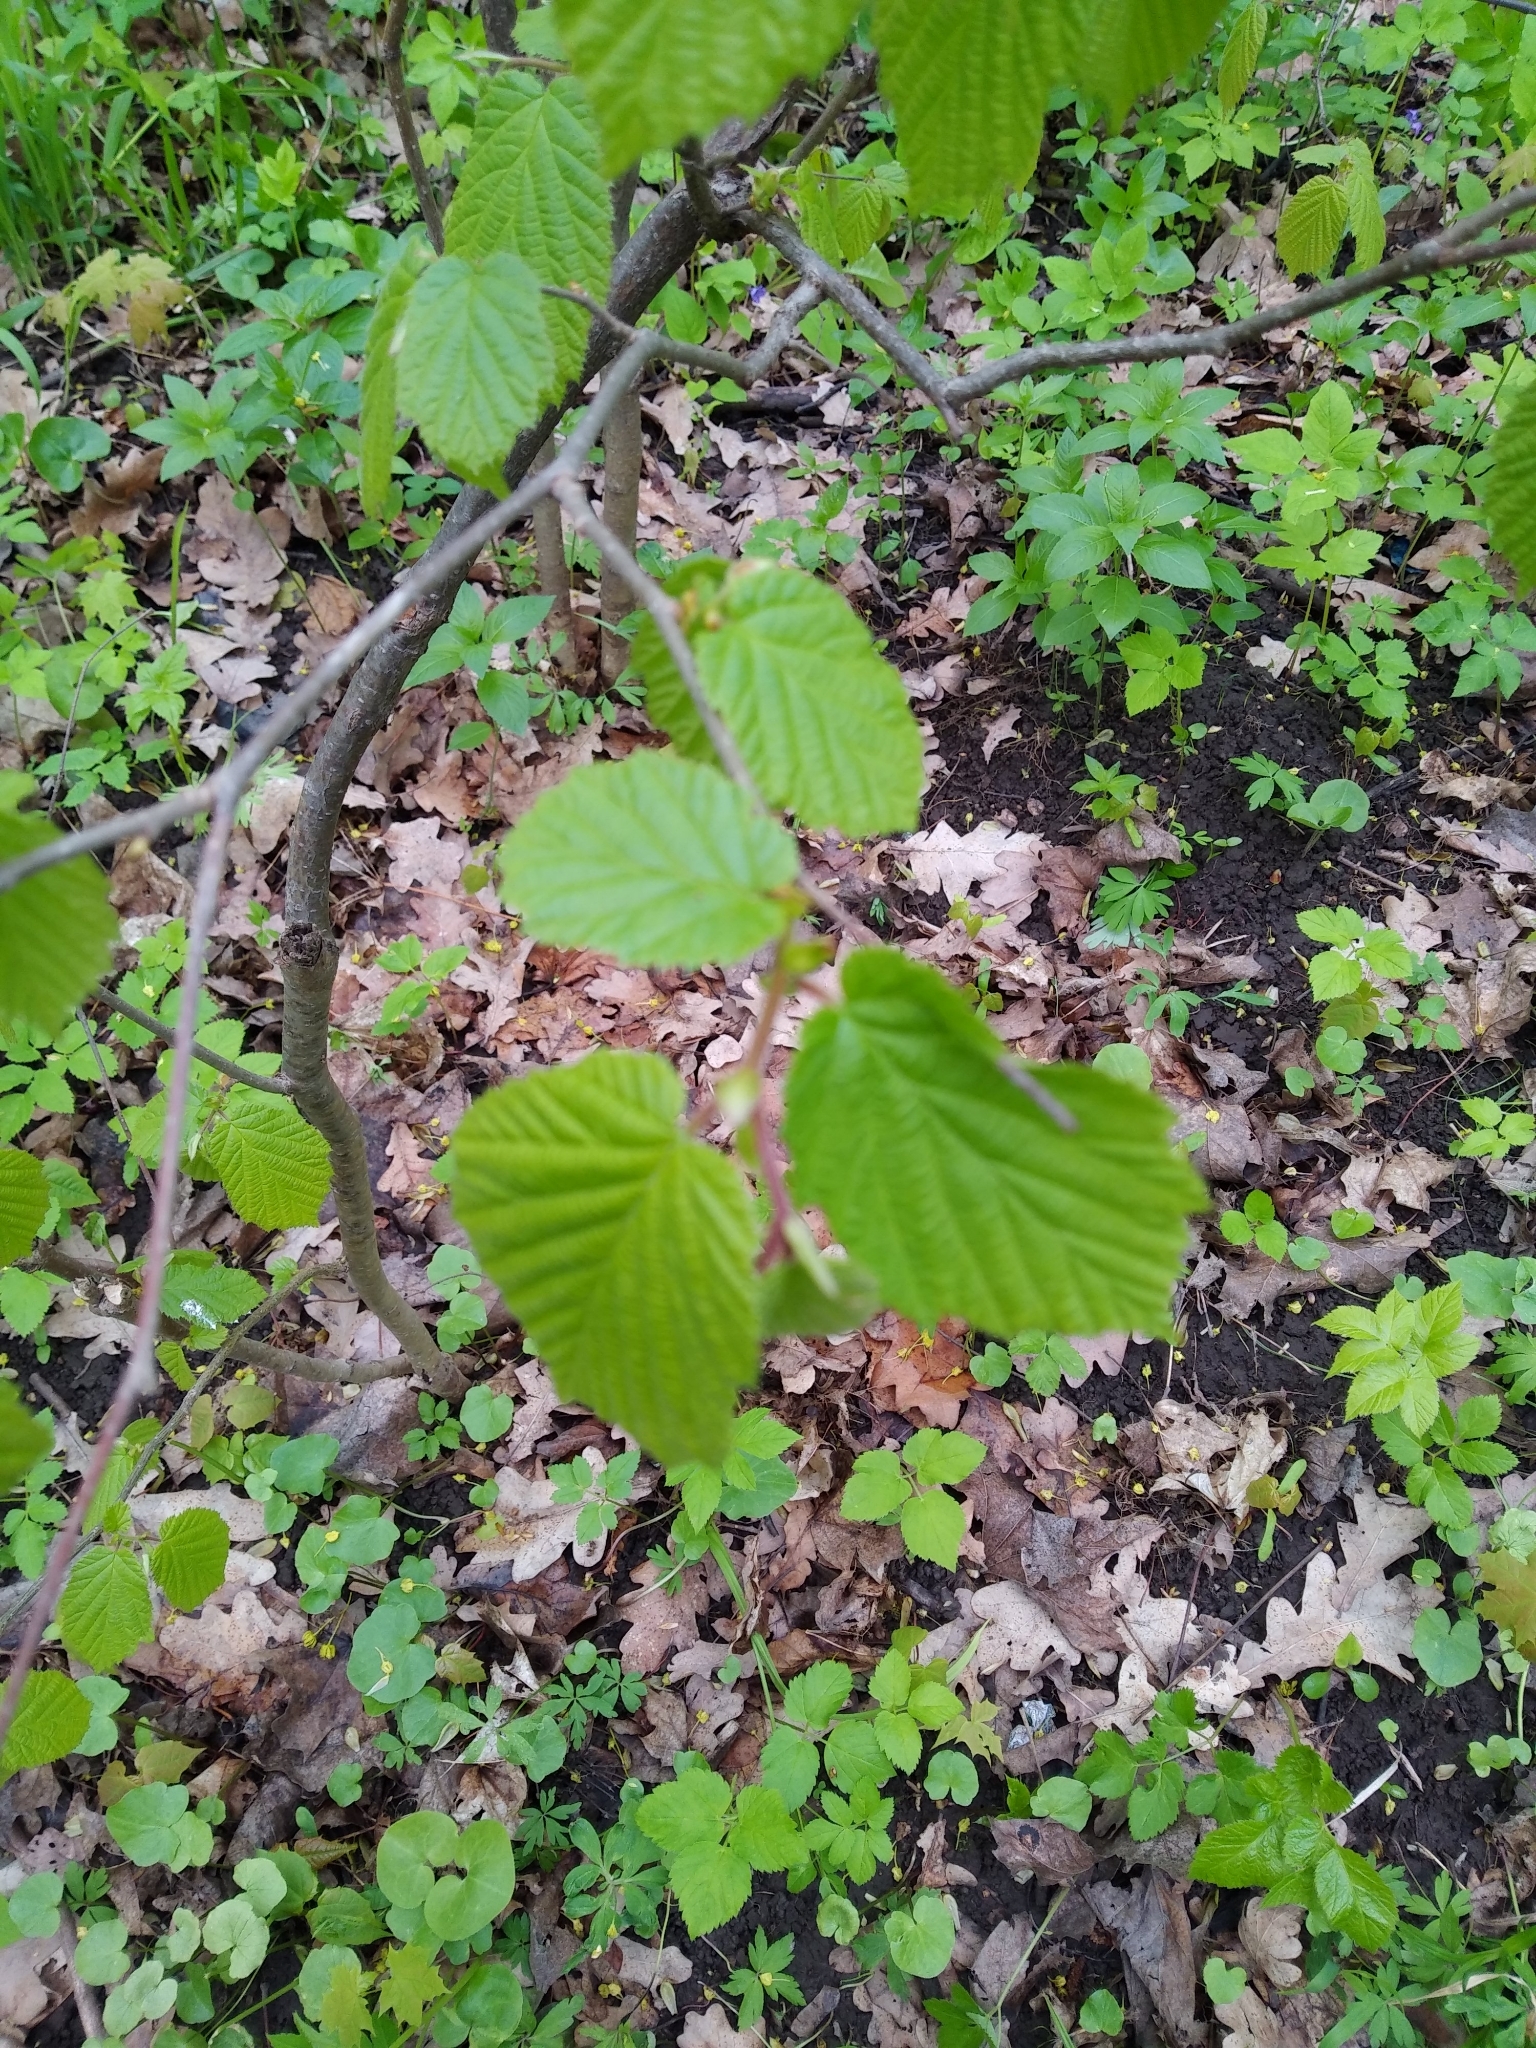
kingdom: Plantae
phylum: Tracheophyta
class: Magnoliopsida
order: Fagales
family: Betulaceae
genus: Corylus
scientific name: Corylus avellana
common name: European hazel
